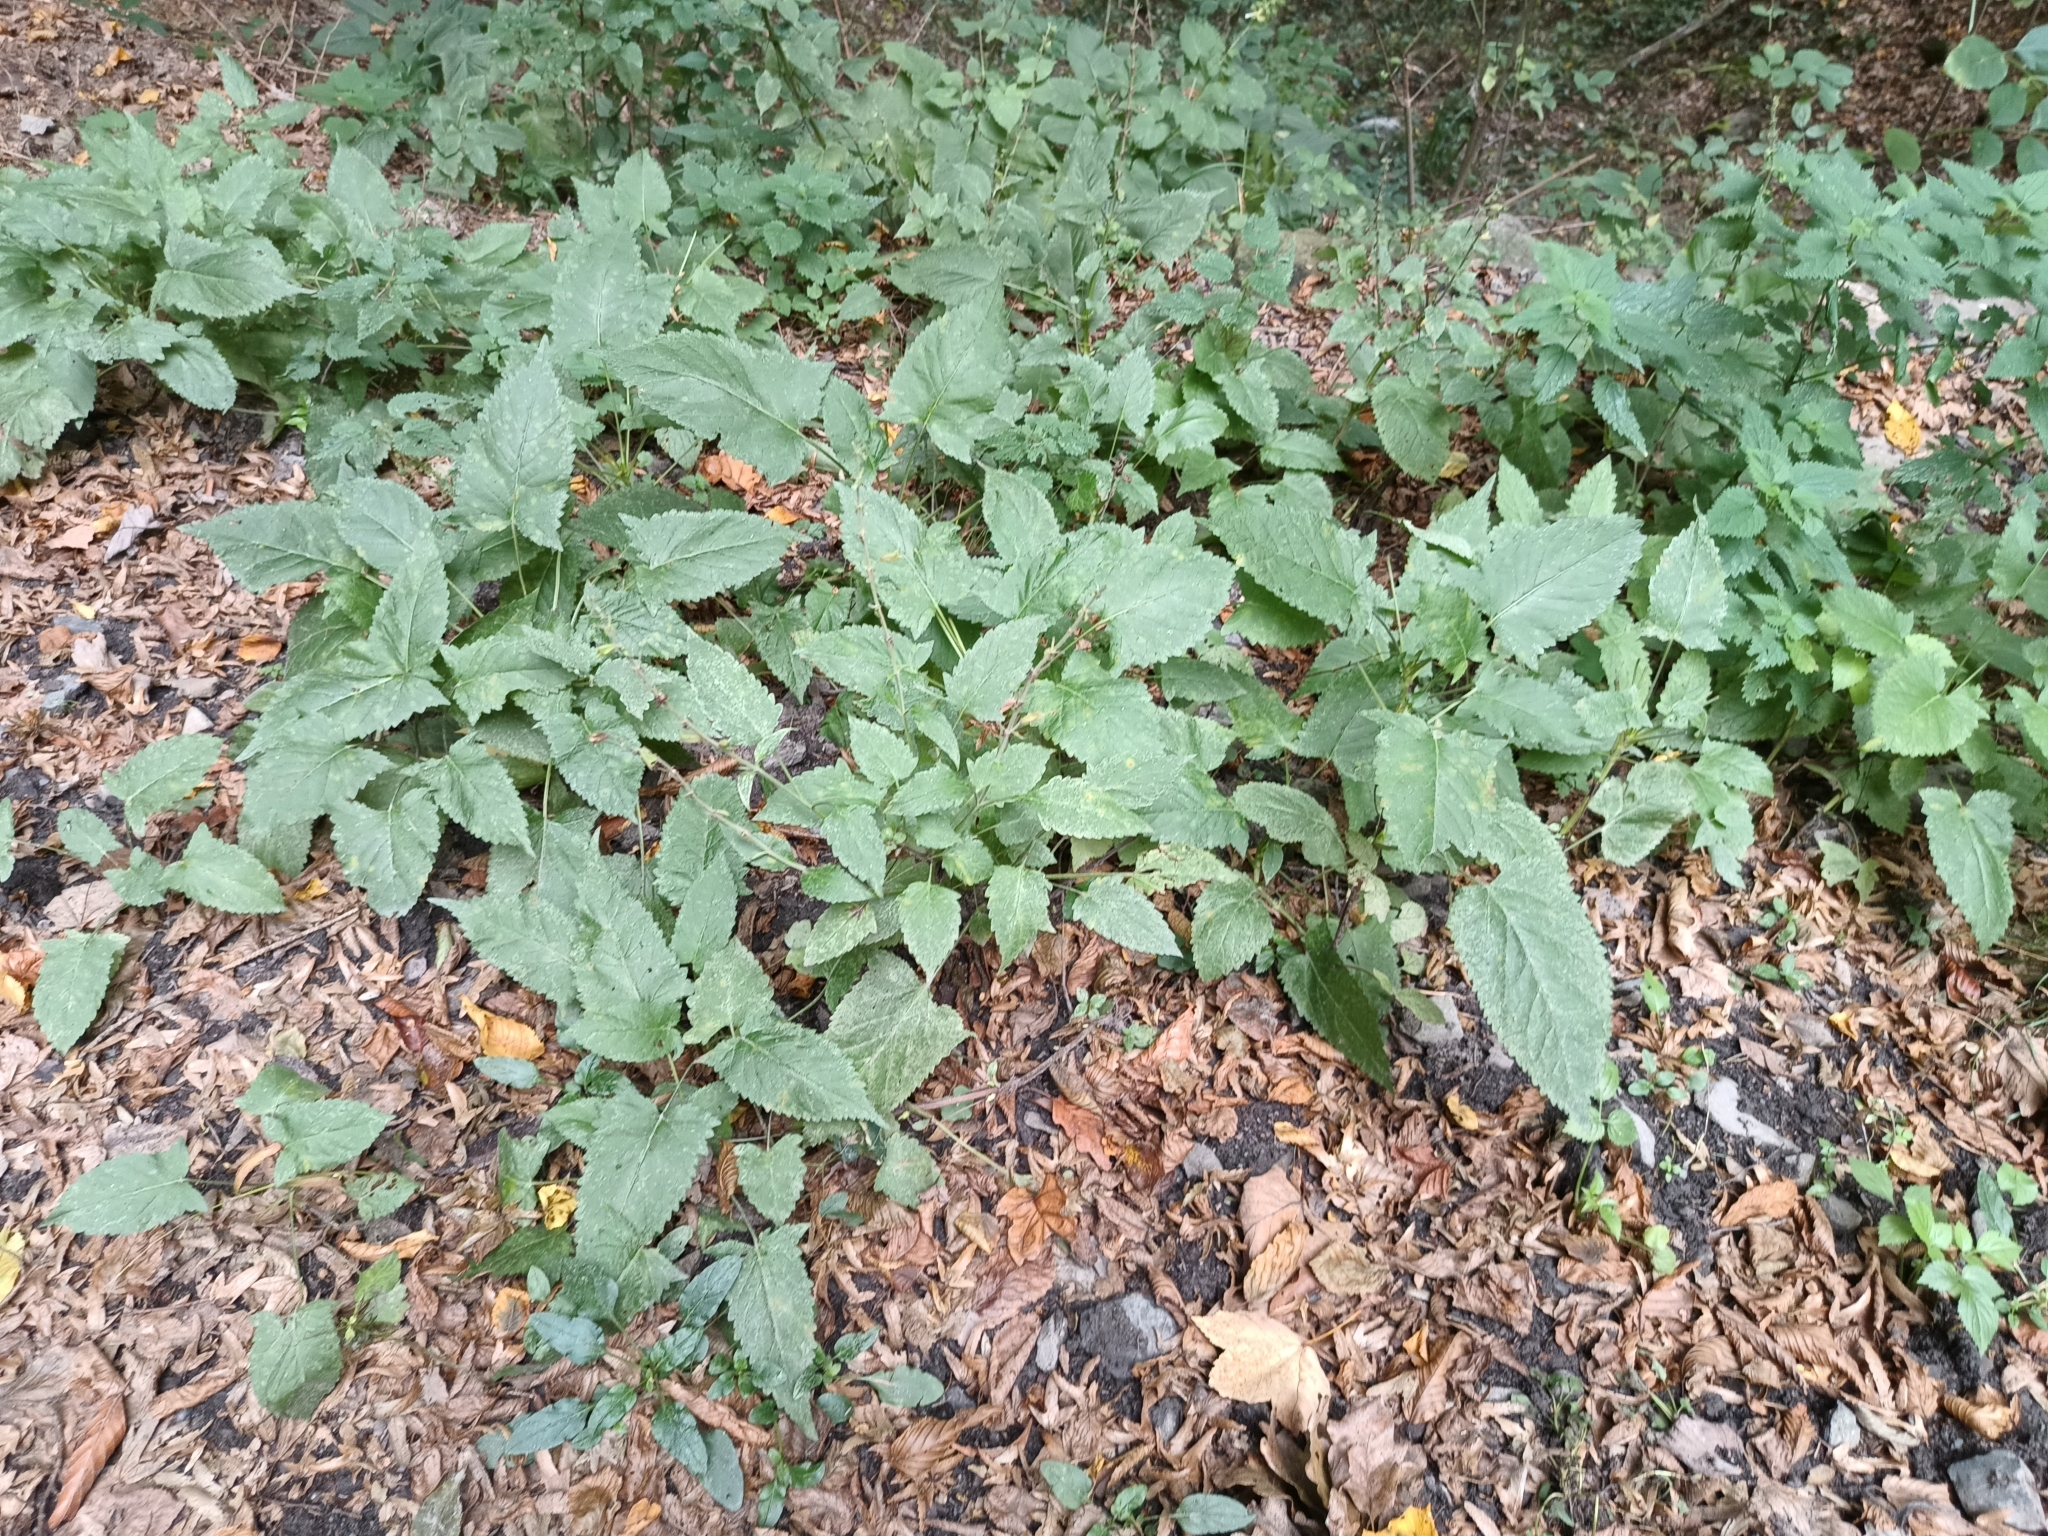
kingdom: Plantae
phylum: Tracheophyta
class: Magnoliopsida
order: Lamiales
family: Lamiaceae
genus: Salvia
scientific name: Salvia glutinosa
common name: Sticky clary
